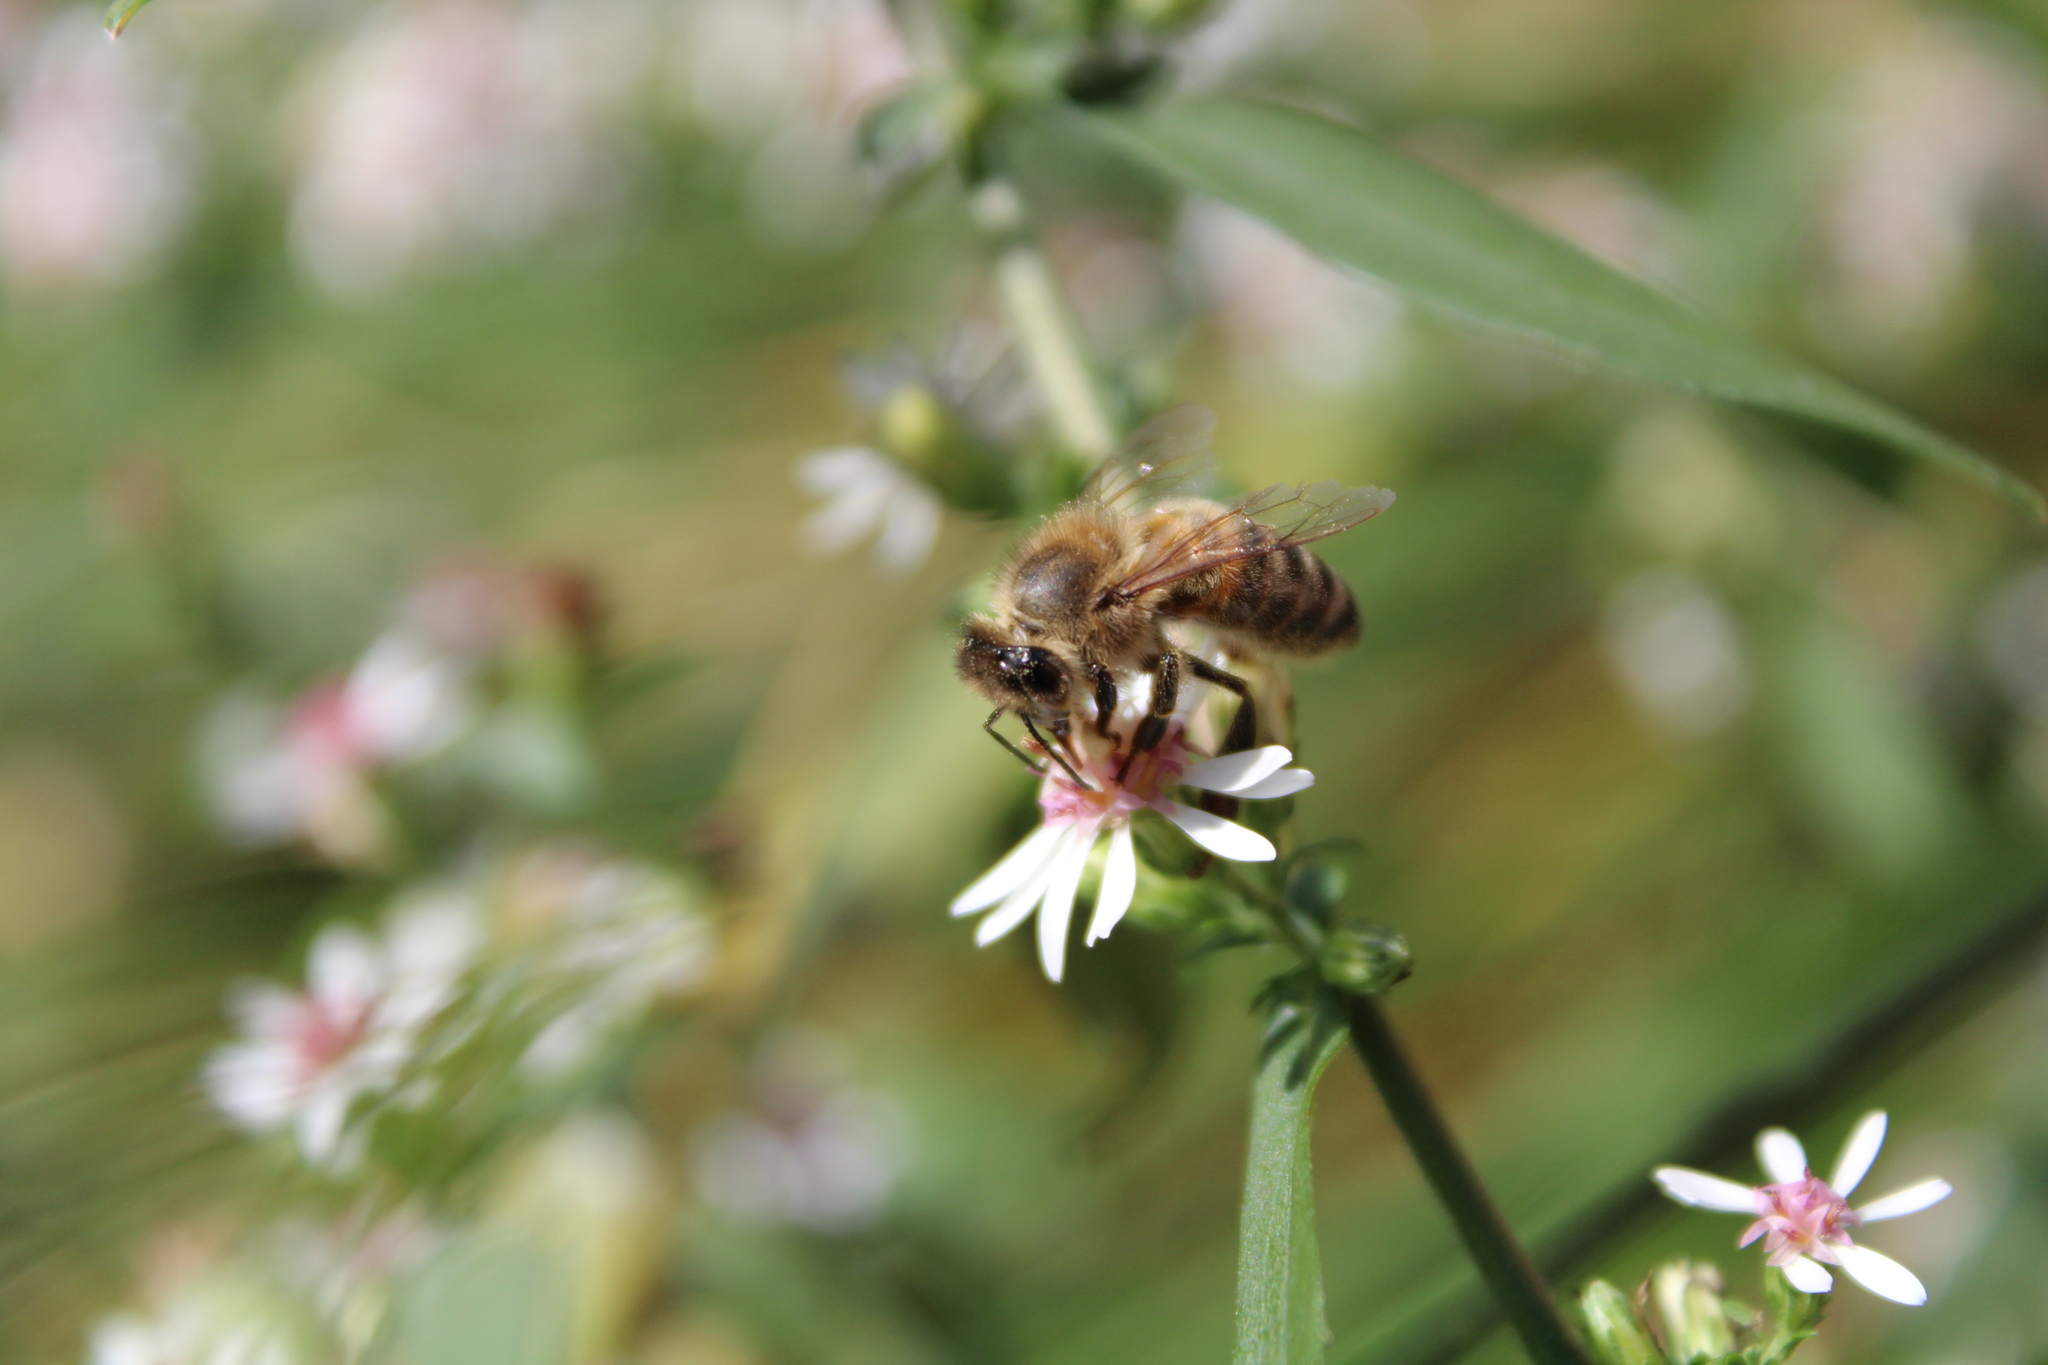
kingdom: Animalia
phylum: Arthropoda
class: Insecta
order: Hymenoptera
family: Apidae
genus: Apis
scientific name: Apis mellifera
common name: Honey bee
